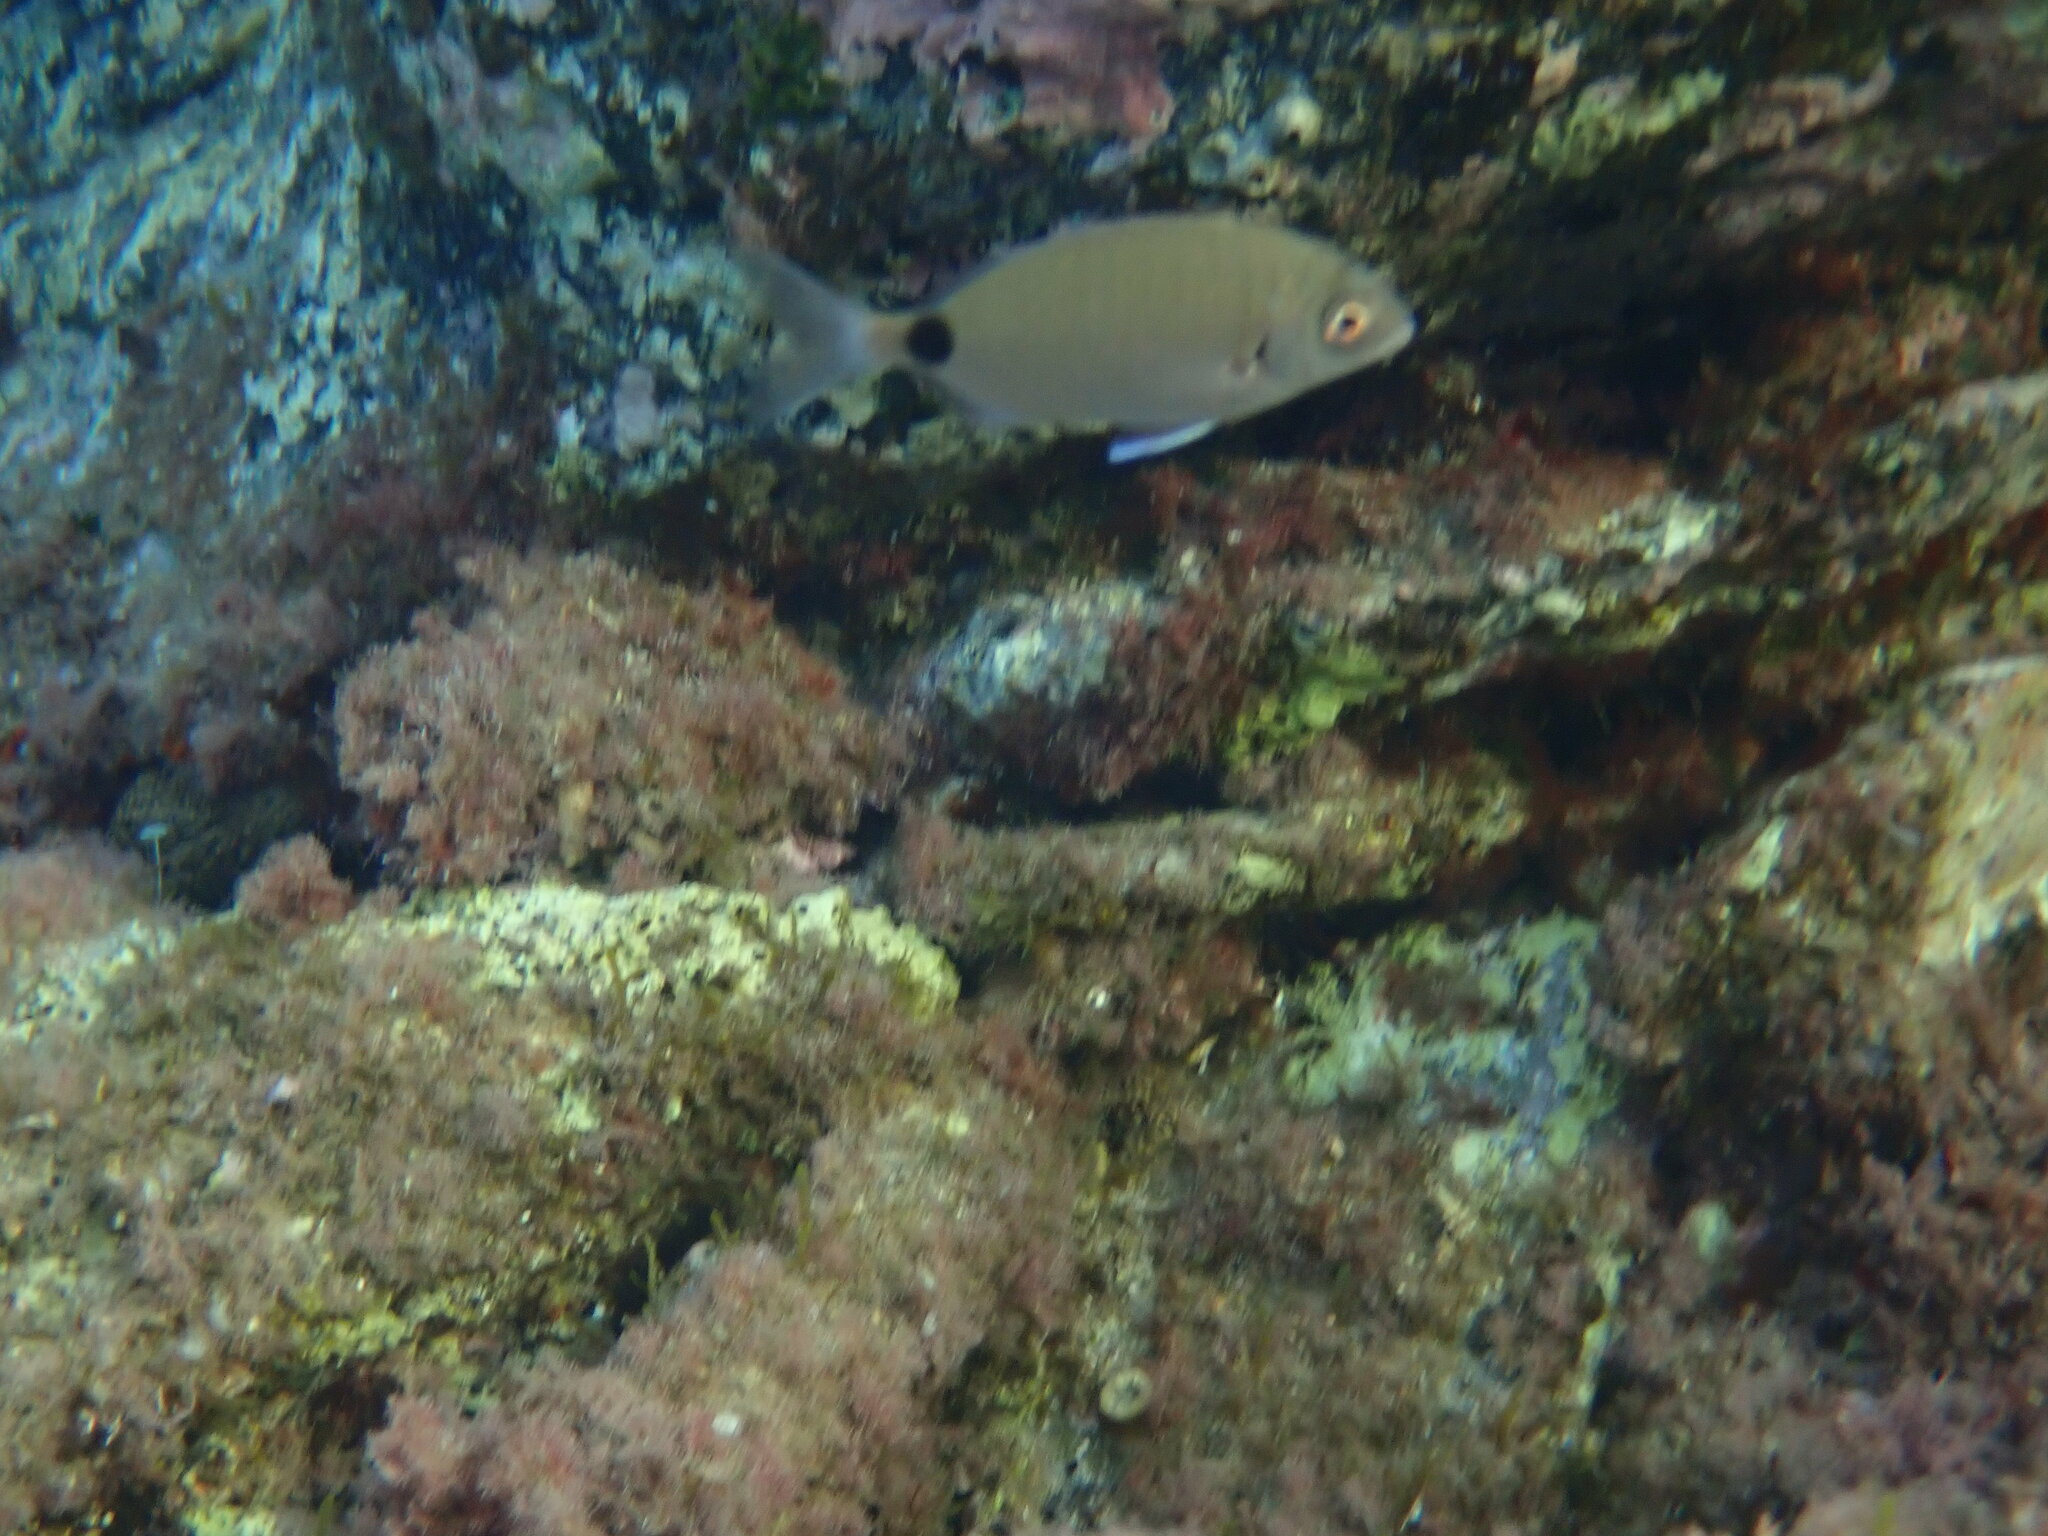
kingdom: Animalia
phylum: Chordata
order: Perciformes
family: Sparidae
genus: Diplodus
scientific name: Diplodus sargus
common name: White seabream
